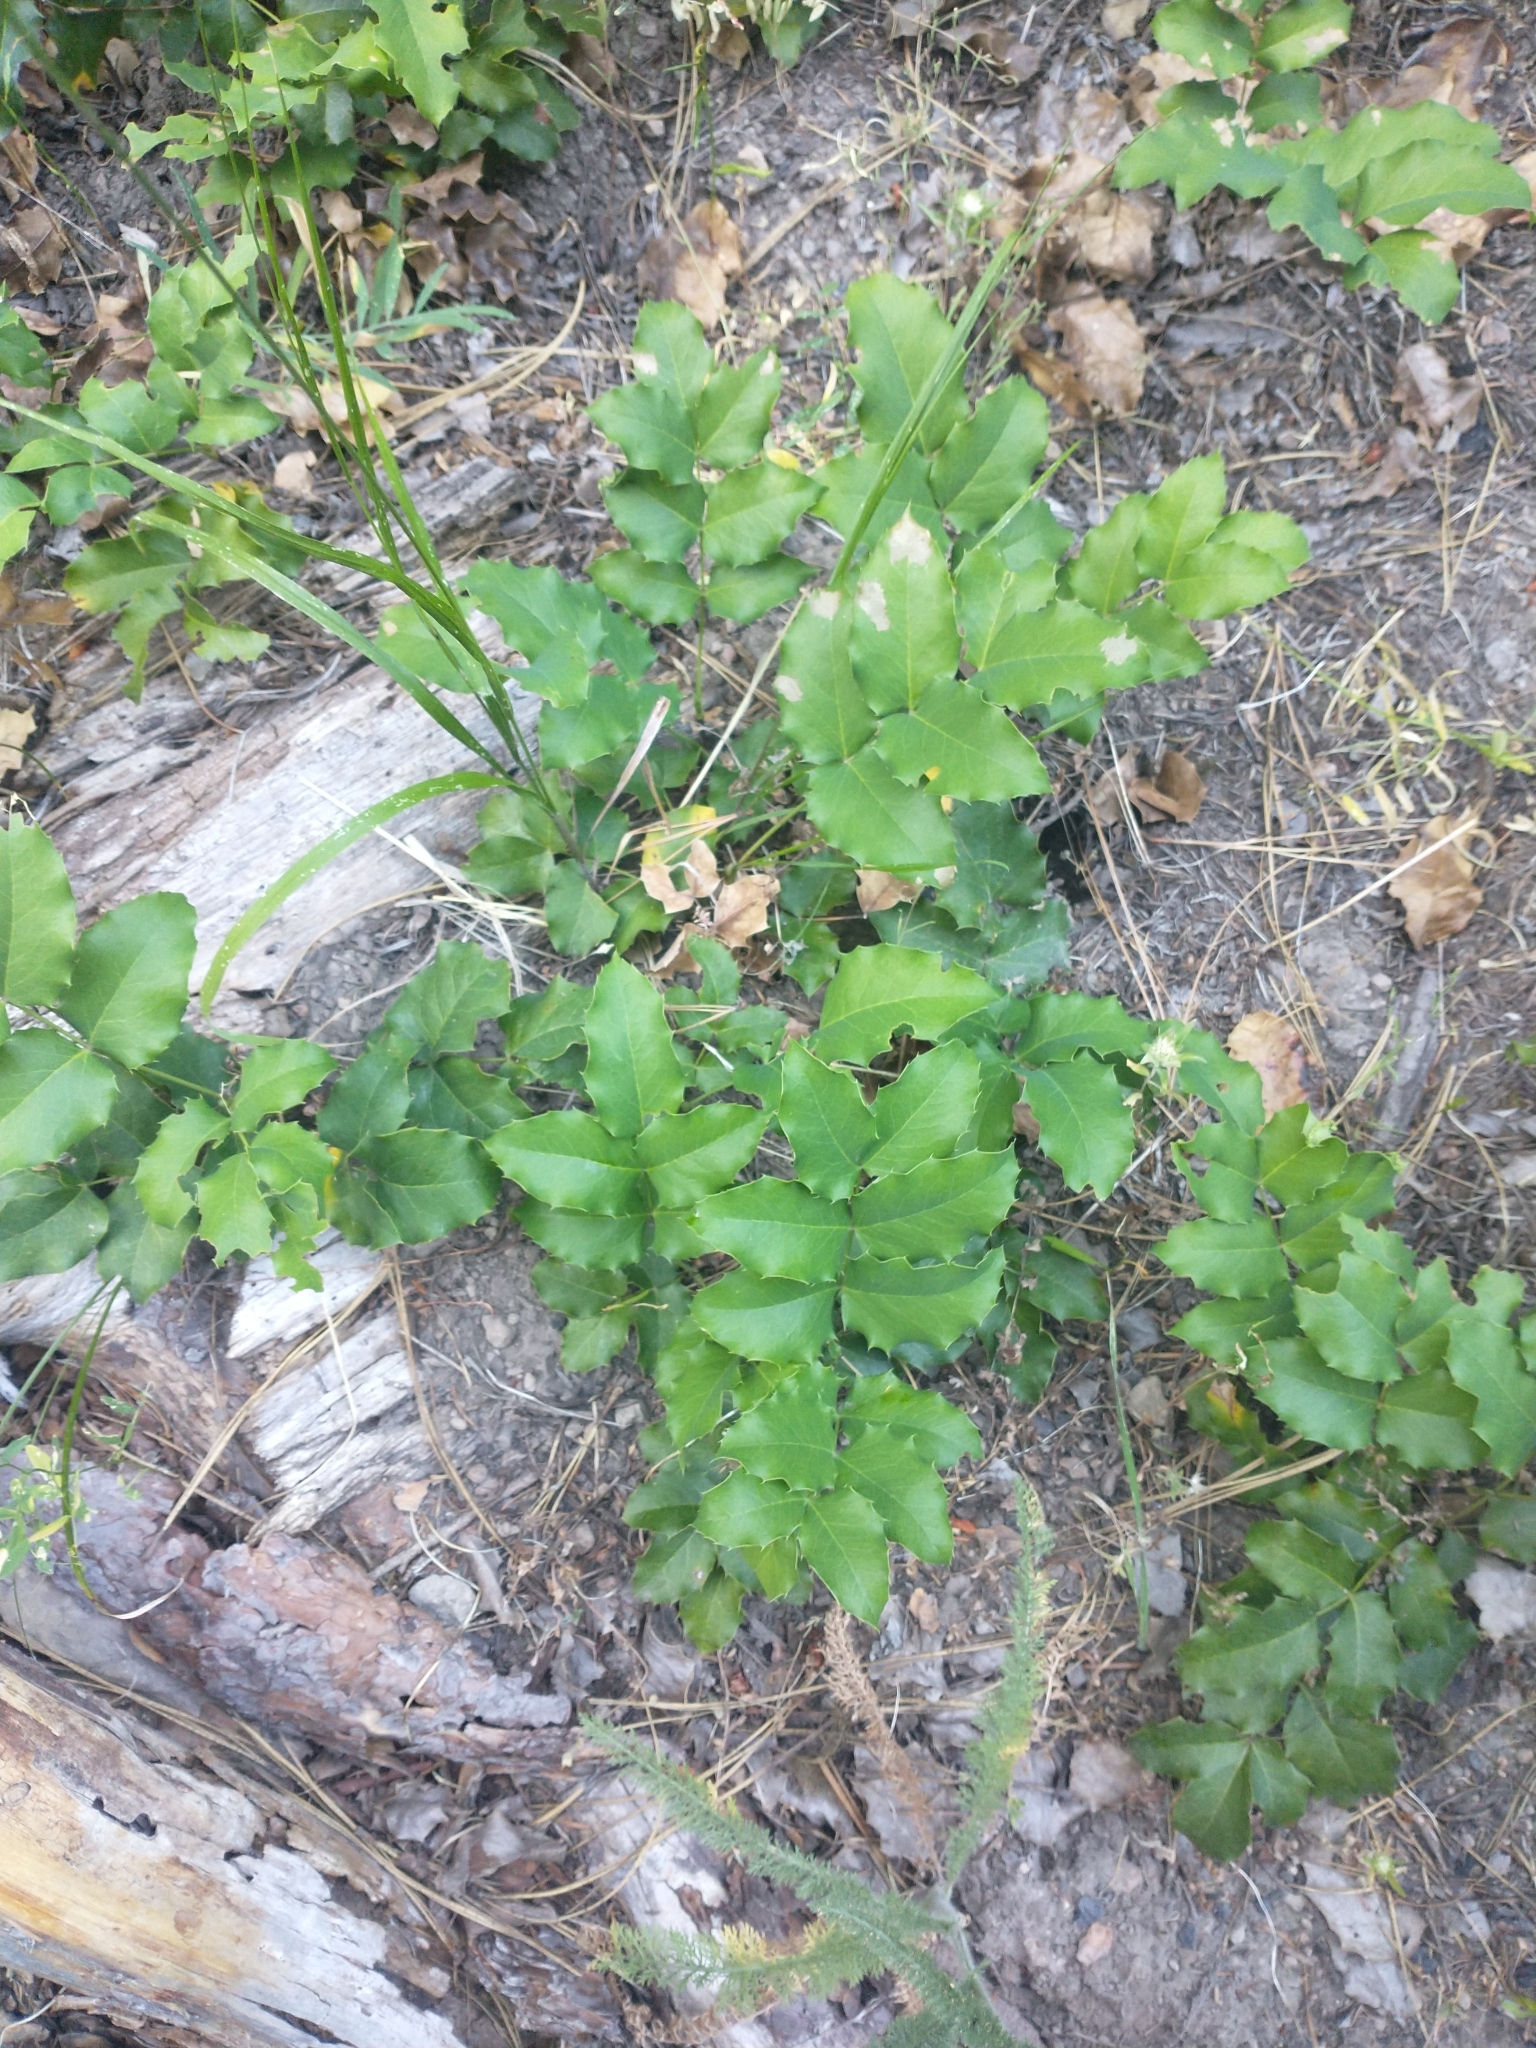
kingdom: Plantae
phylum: Tracheophyta
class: Magnoliopsida
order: Ranunculales
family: Berberidaceae
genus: Mahonia
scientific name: Mahonia repens
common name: Creeping oregon-grape
